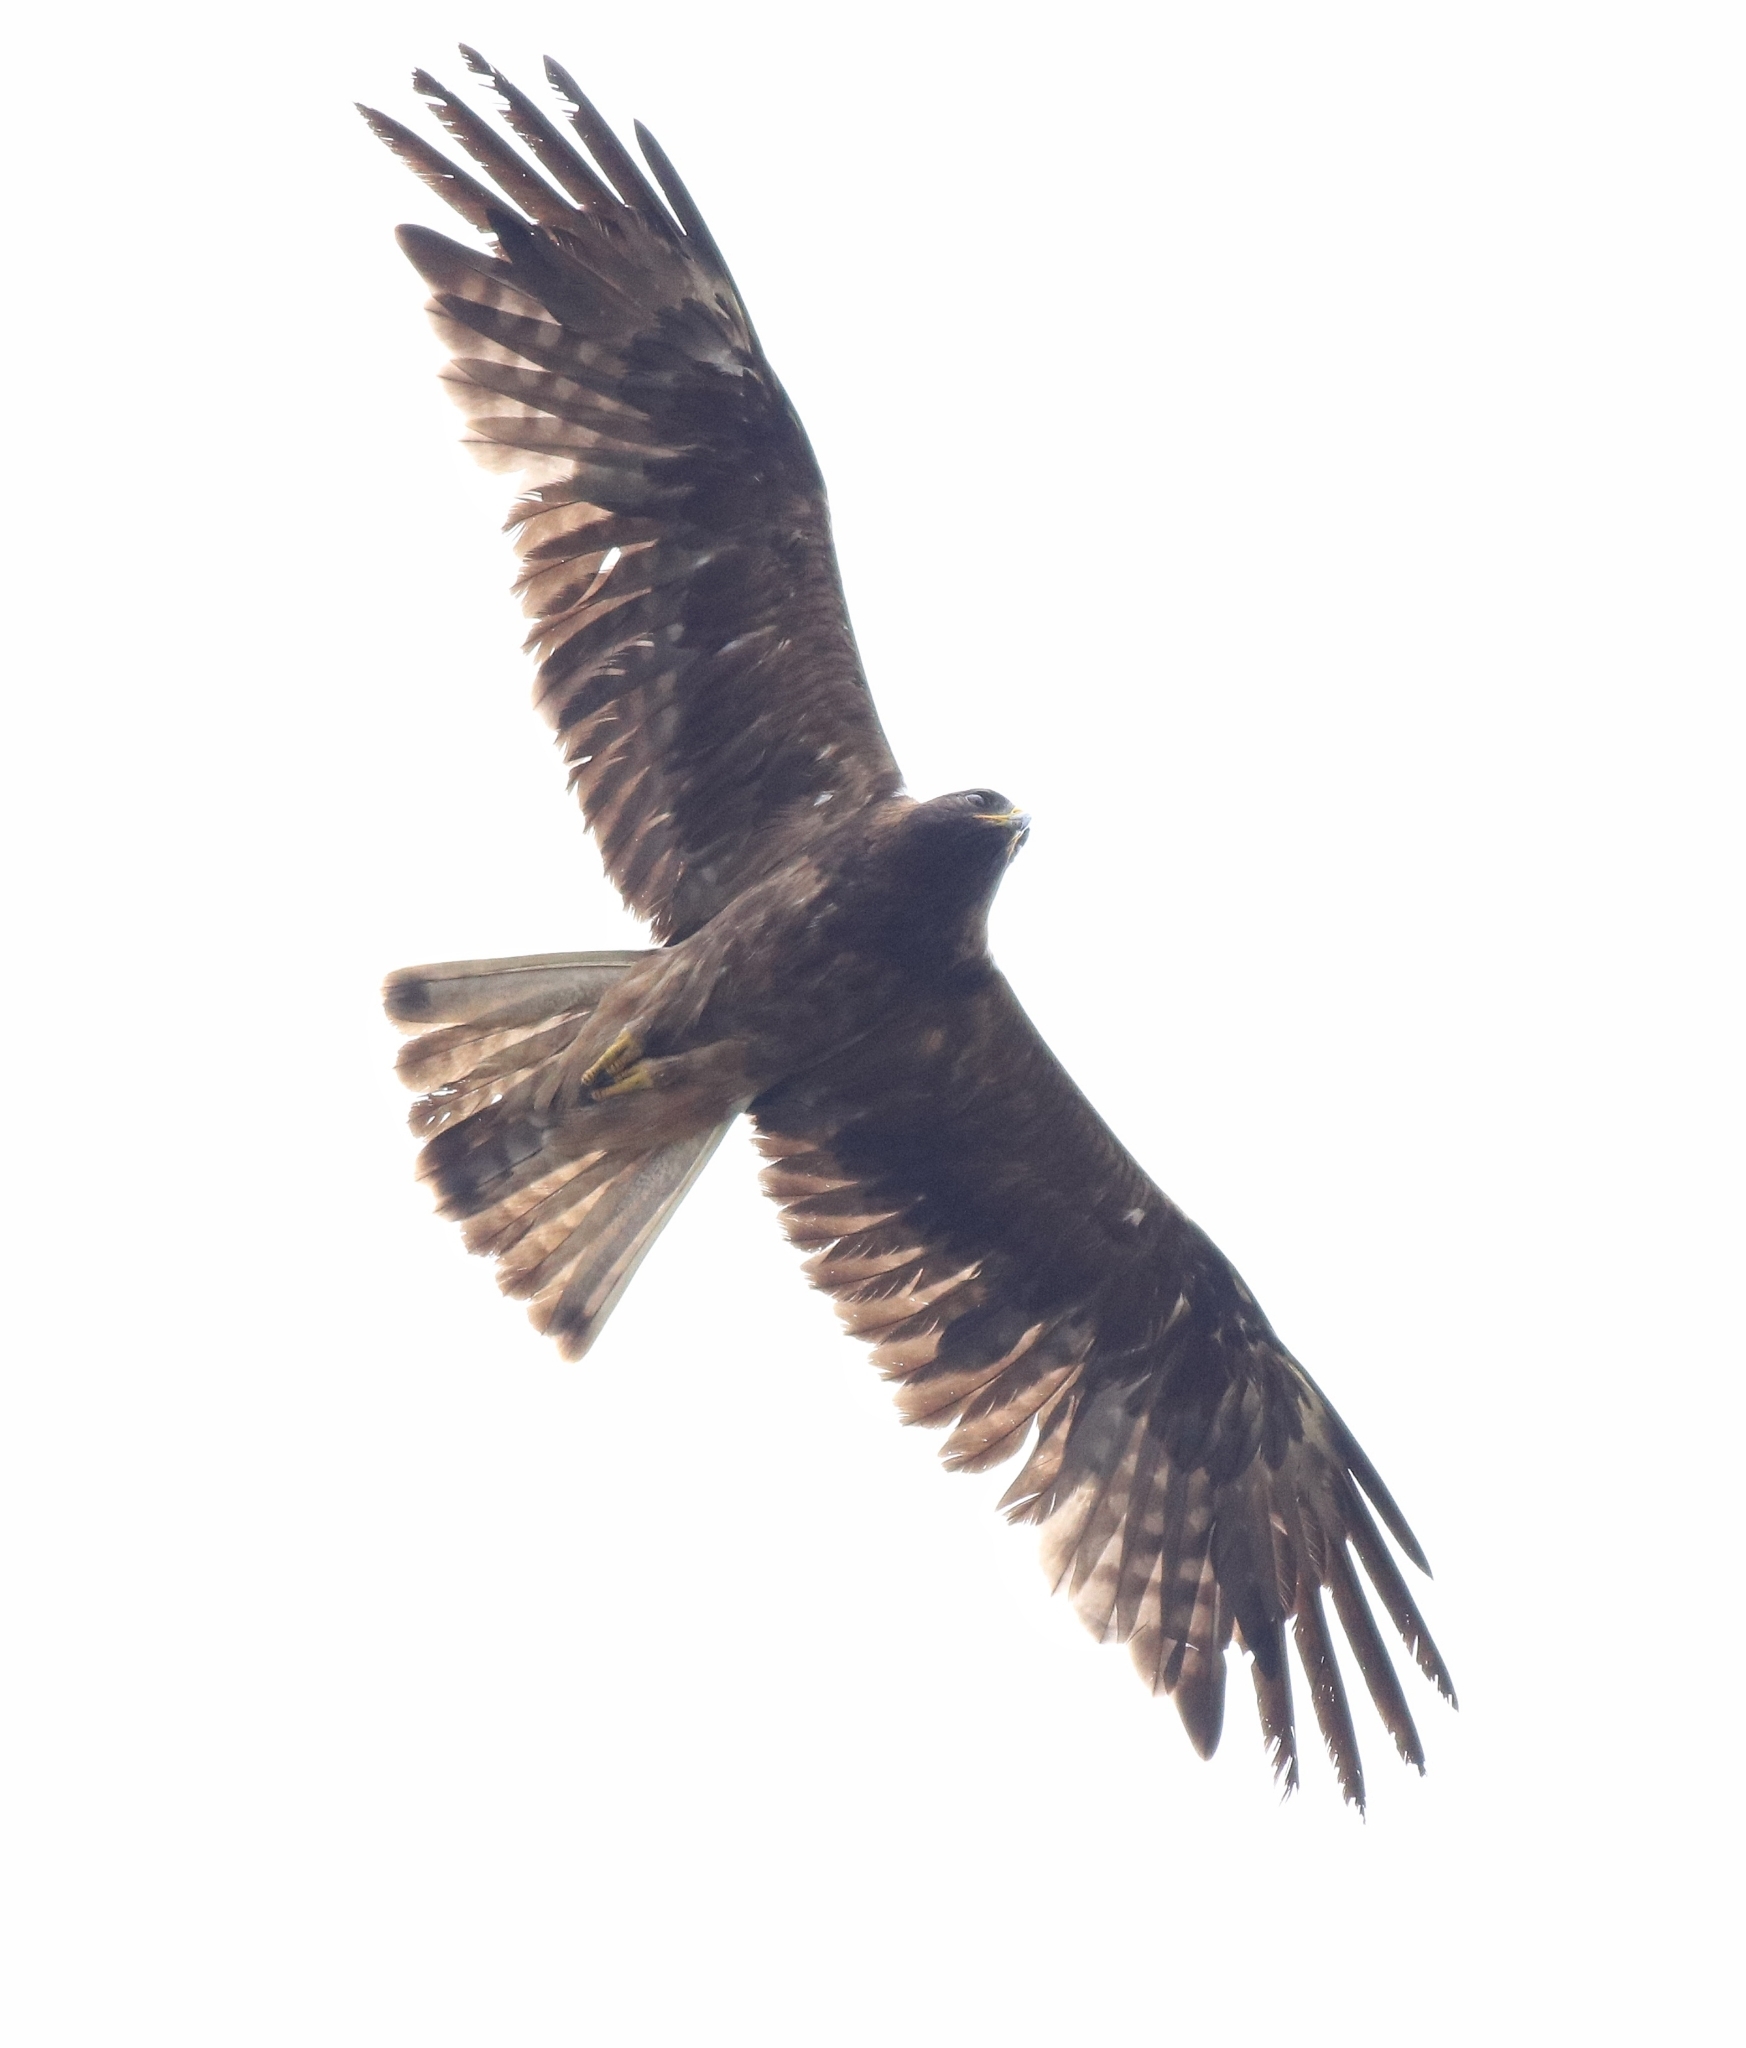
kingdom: Animalia
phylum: Chordata
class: Aves
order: Accipitriformes
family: Accipitridae
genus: Hieraaetus
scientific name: Hieraaetus pennatus
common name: Booted eagle
